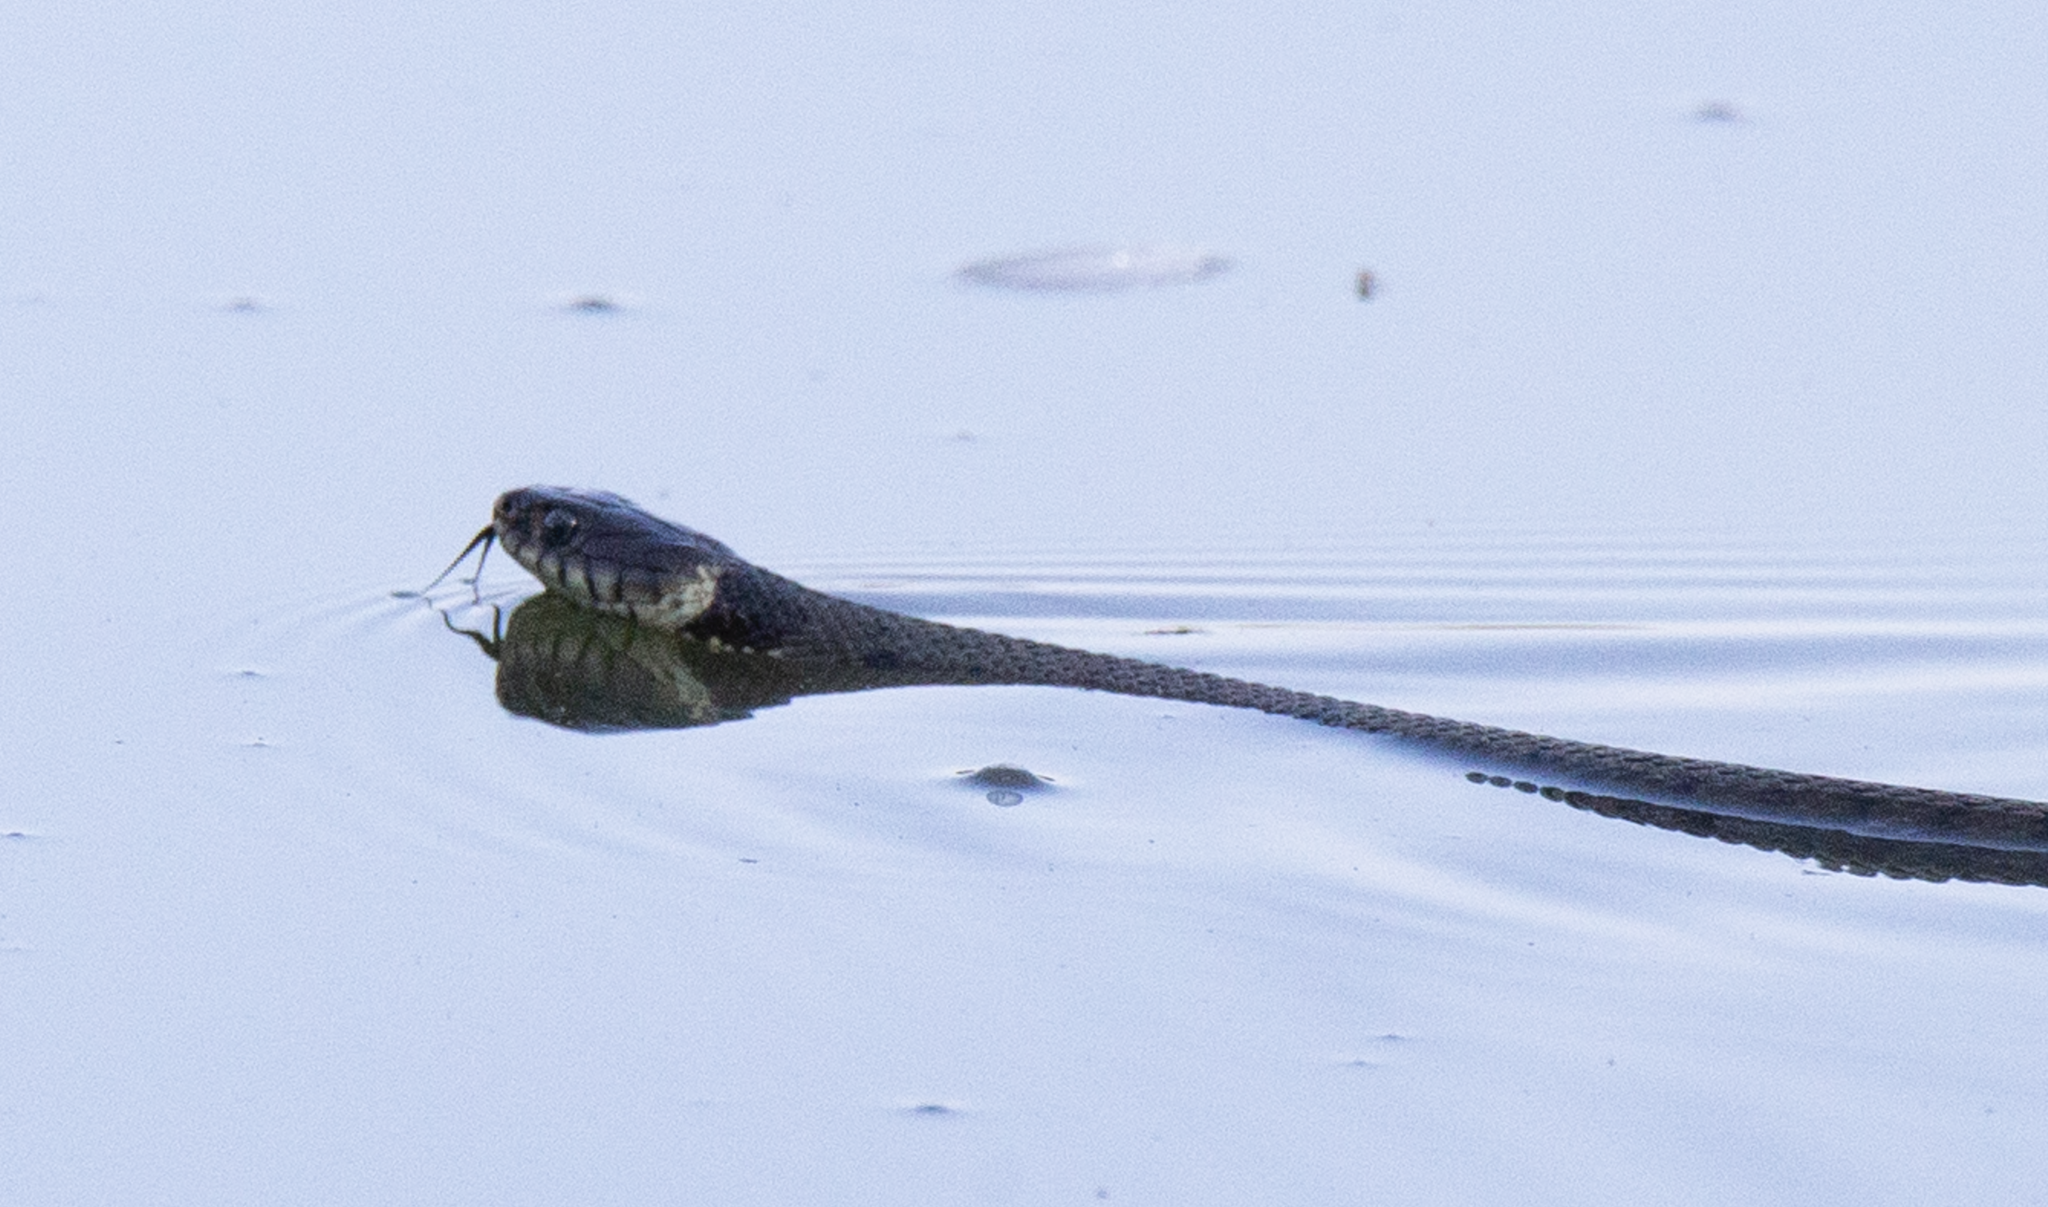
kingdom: Animalia
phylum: Chordata
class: Squamata
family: Colubridae
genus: Natrix
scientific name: Natrix helvetica
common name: Banded grass snake
